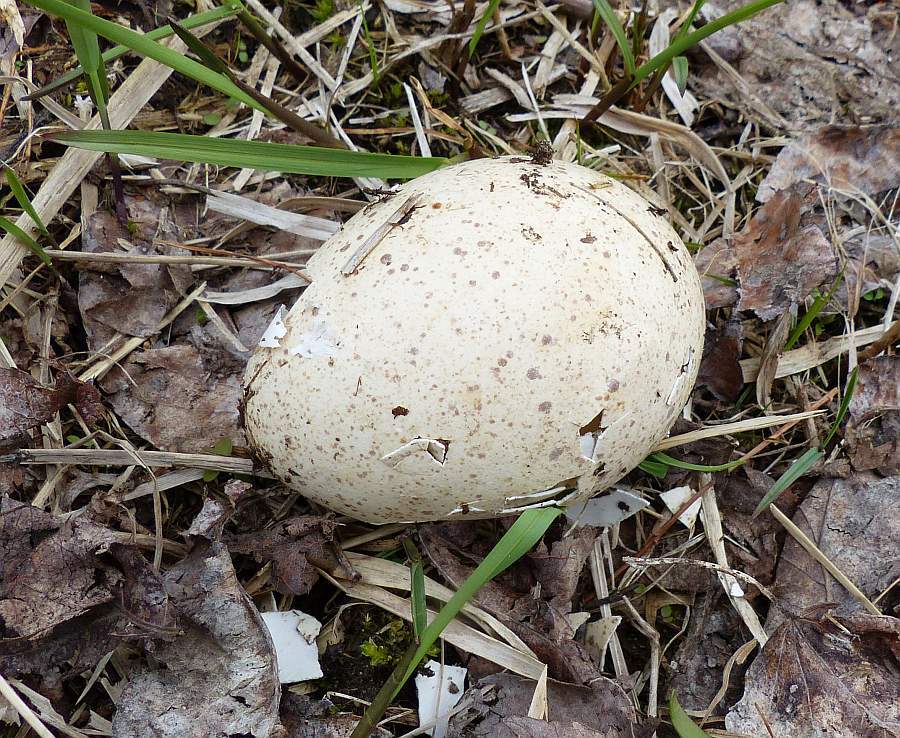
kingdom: Animalia
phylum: Chordata
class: Aves
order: Galliformes
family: Phasianidae
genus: Meleagris
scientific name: Meleagris gallopavo
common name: Wild turkey
